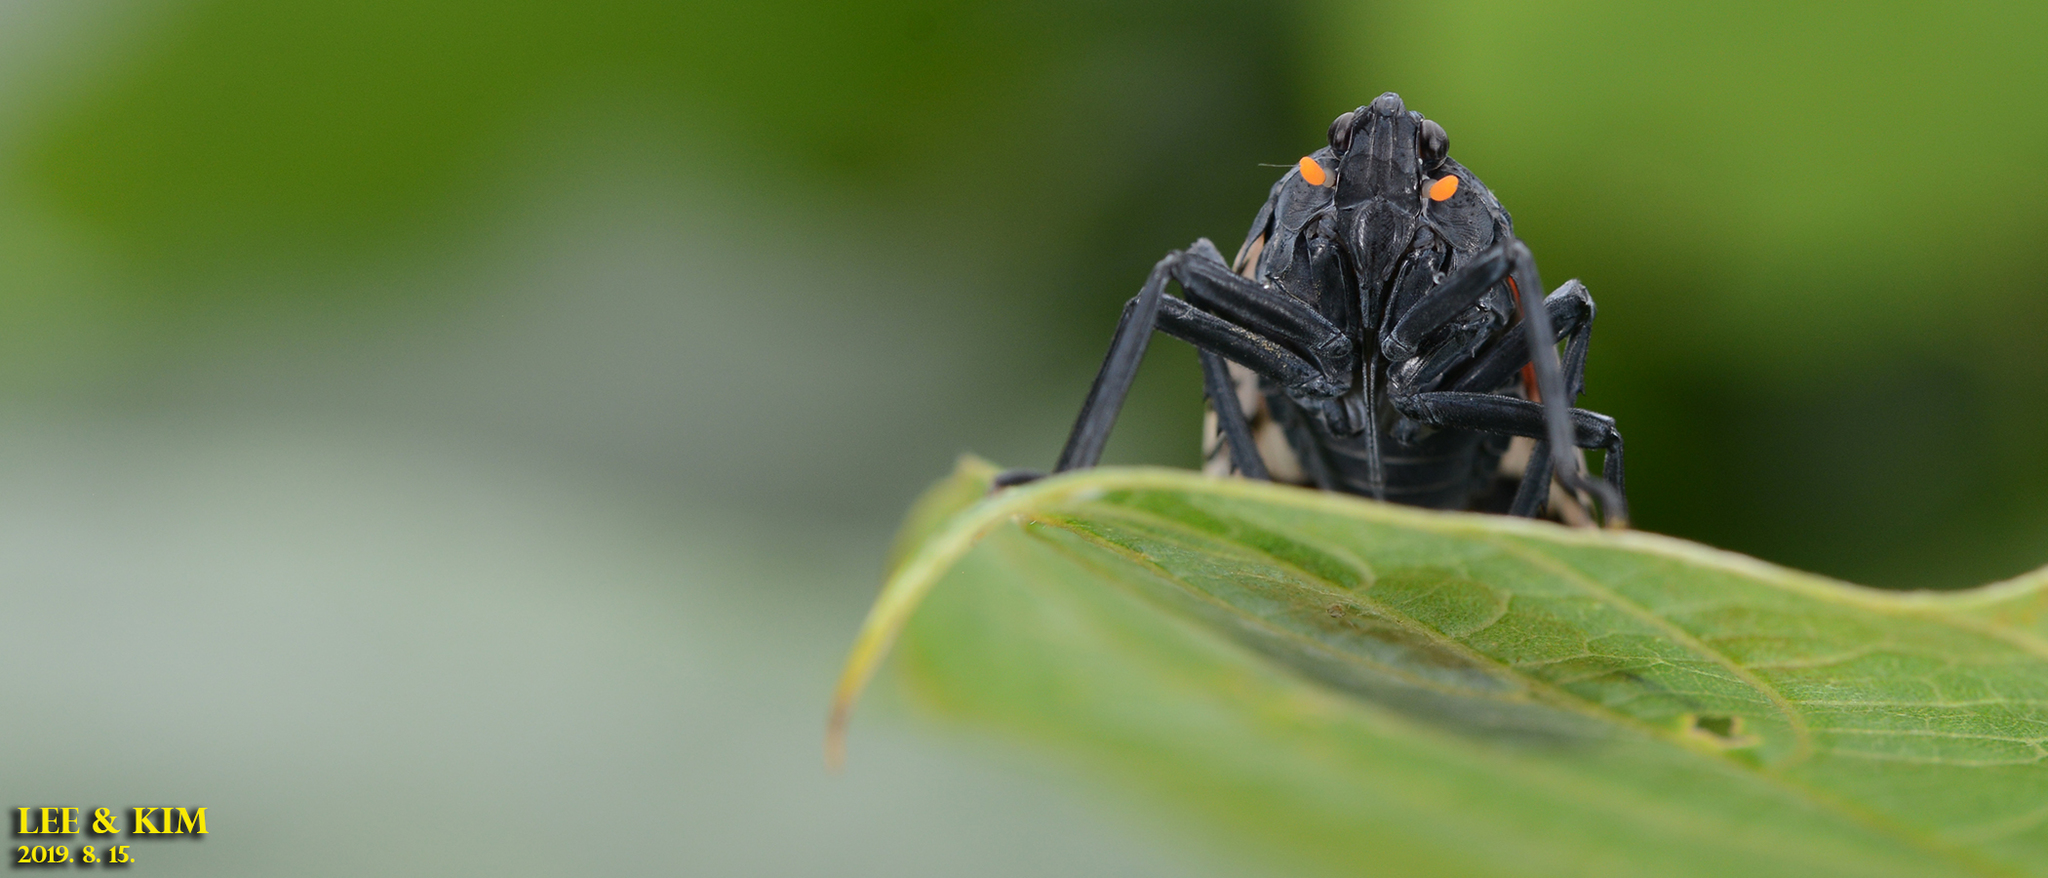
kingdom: Animalia
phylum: Arthropoda
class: Insecta
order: Hemiptera
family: Fulgoridae
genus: Lycorma
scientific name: Lycorma delicatula
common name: Spotted lanternfly
